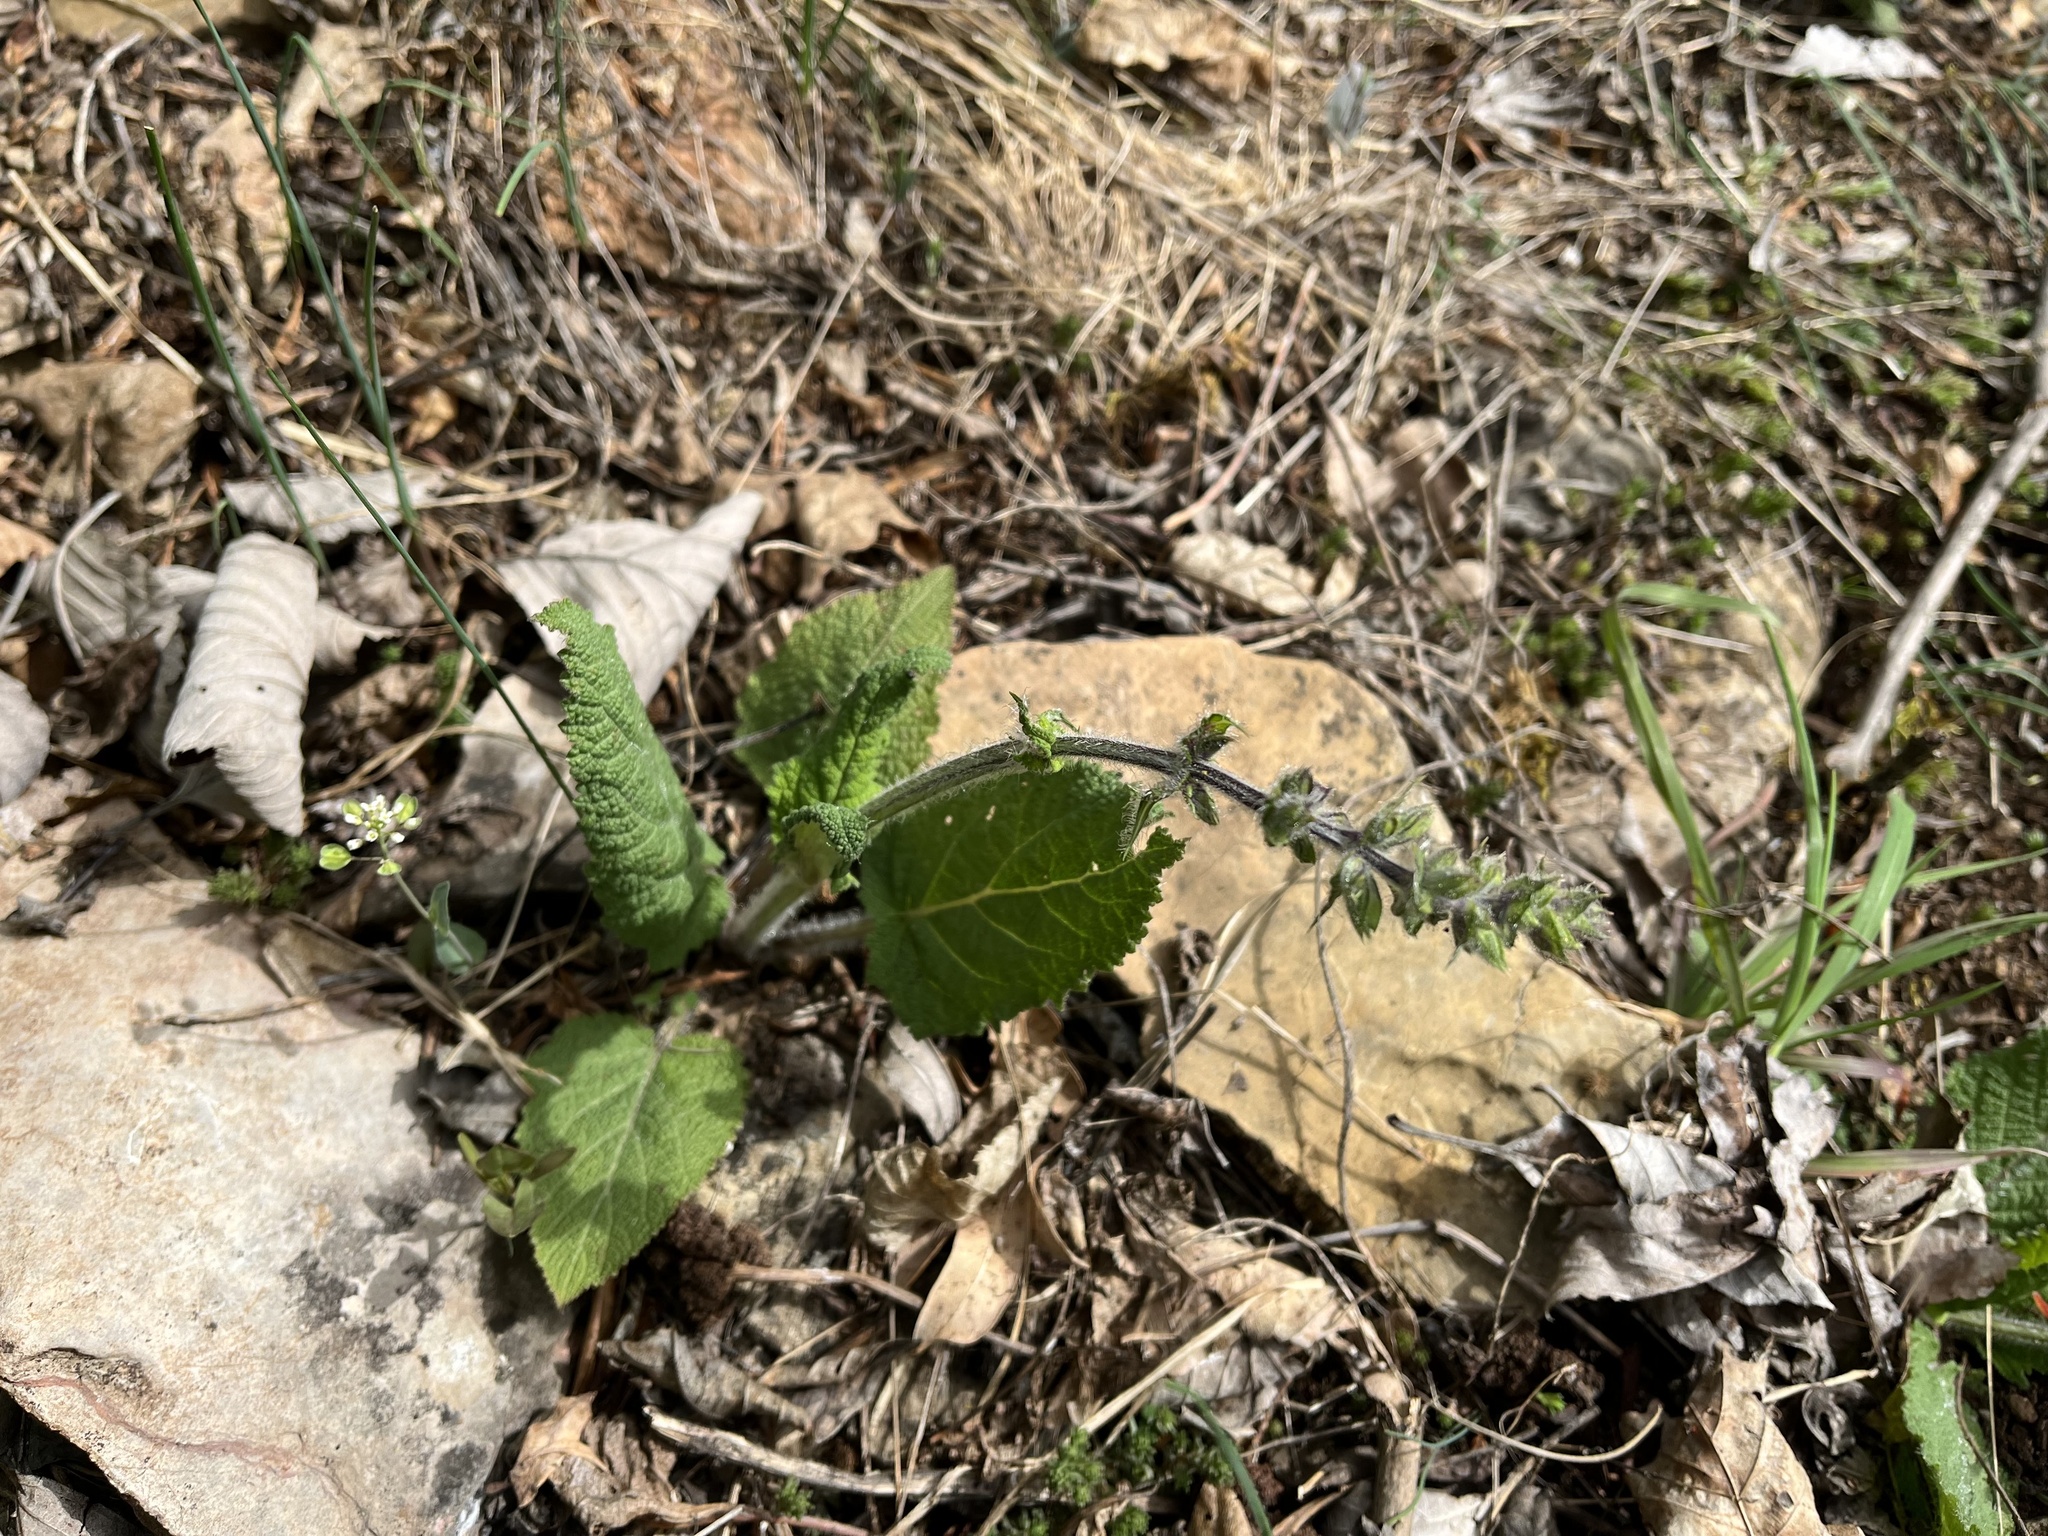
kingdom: Plantae
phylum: Tracheophyta
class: Magnoliopsida
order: Lamiales
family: Lamiaceae
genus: Salvia
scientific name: Salvia pratensis
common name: Meadow sage
